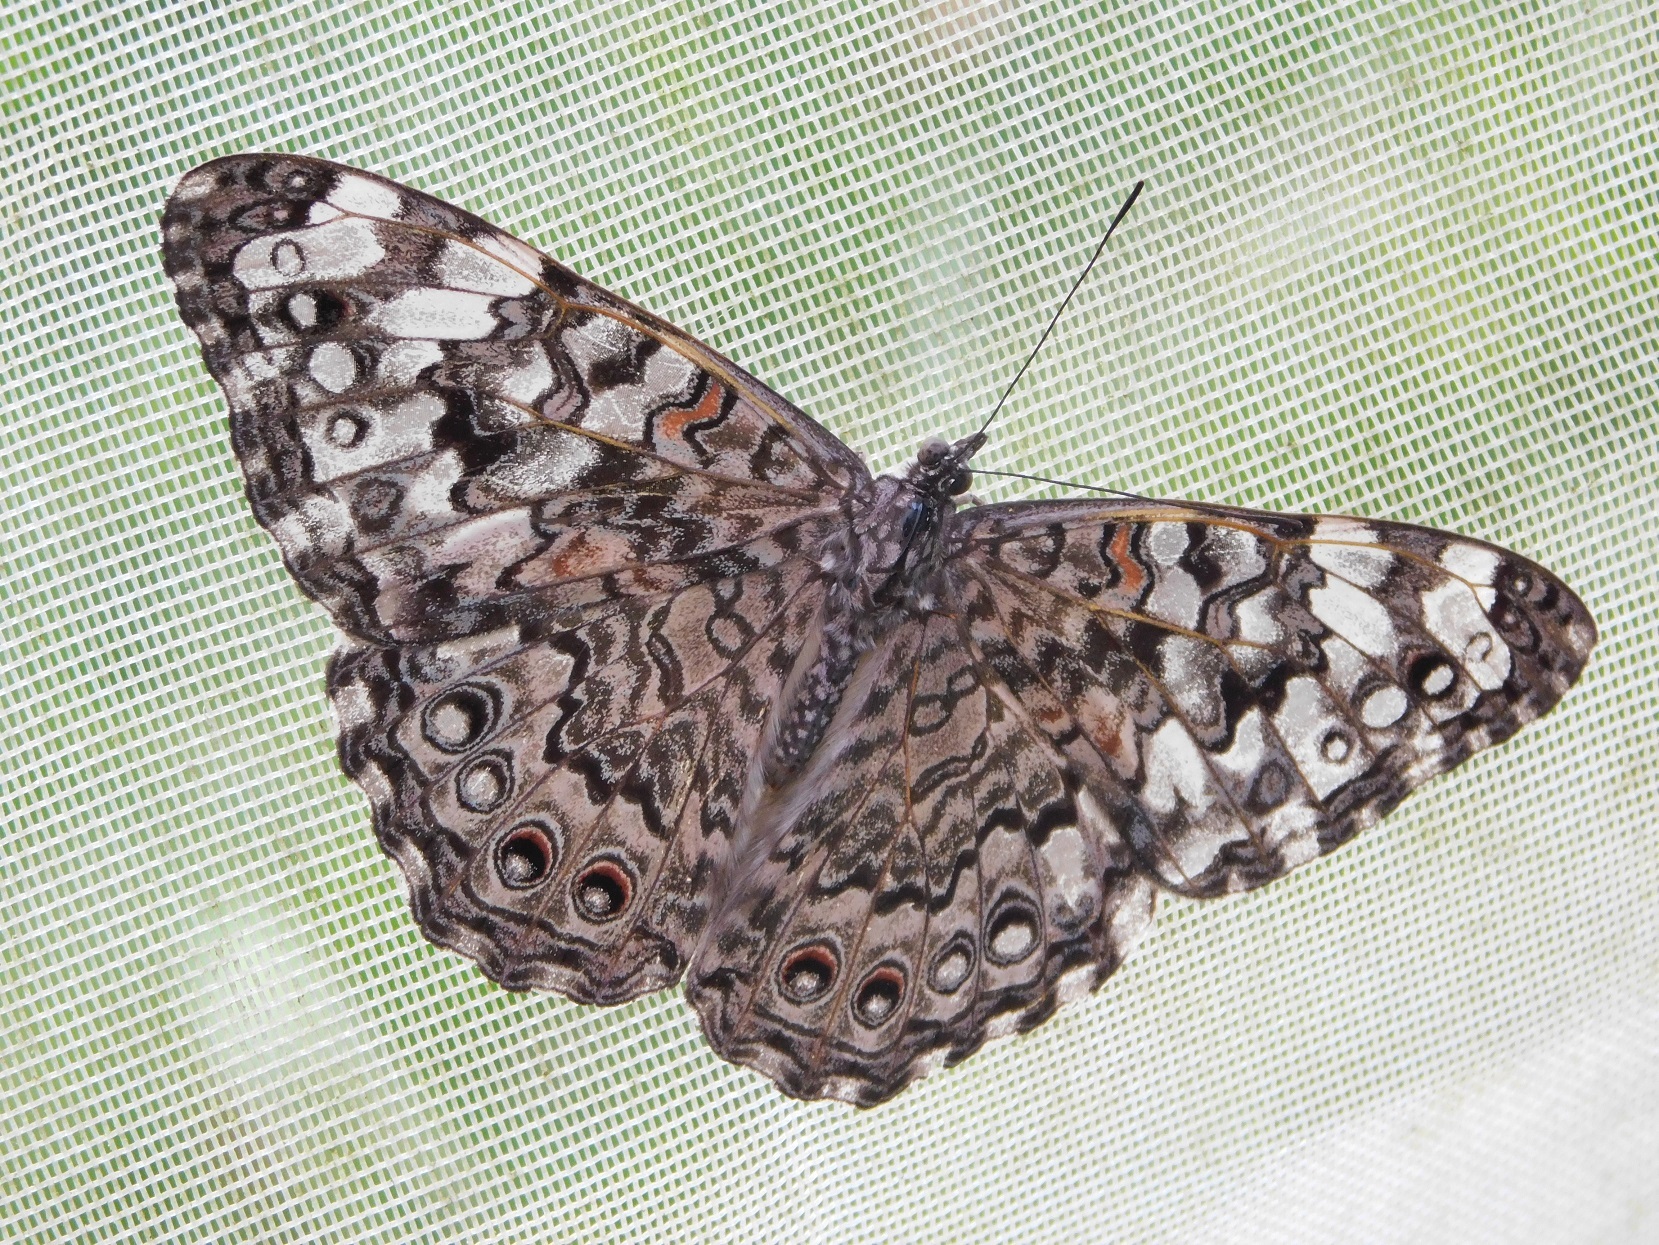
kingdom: Animalia
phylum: Arthropoda
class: Insecta
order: Lepidoptera
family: Nymphalidae
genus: Hamadryas
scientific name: Hamadryas februa
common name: Gray cracker
